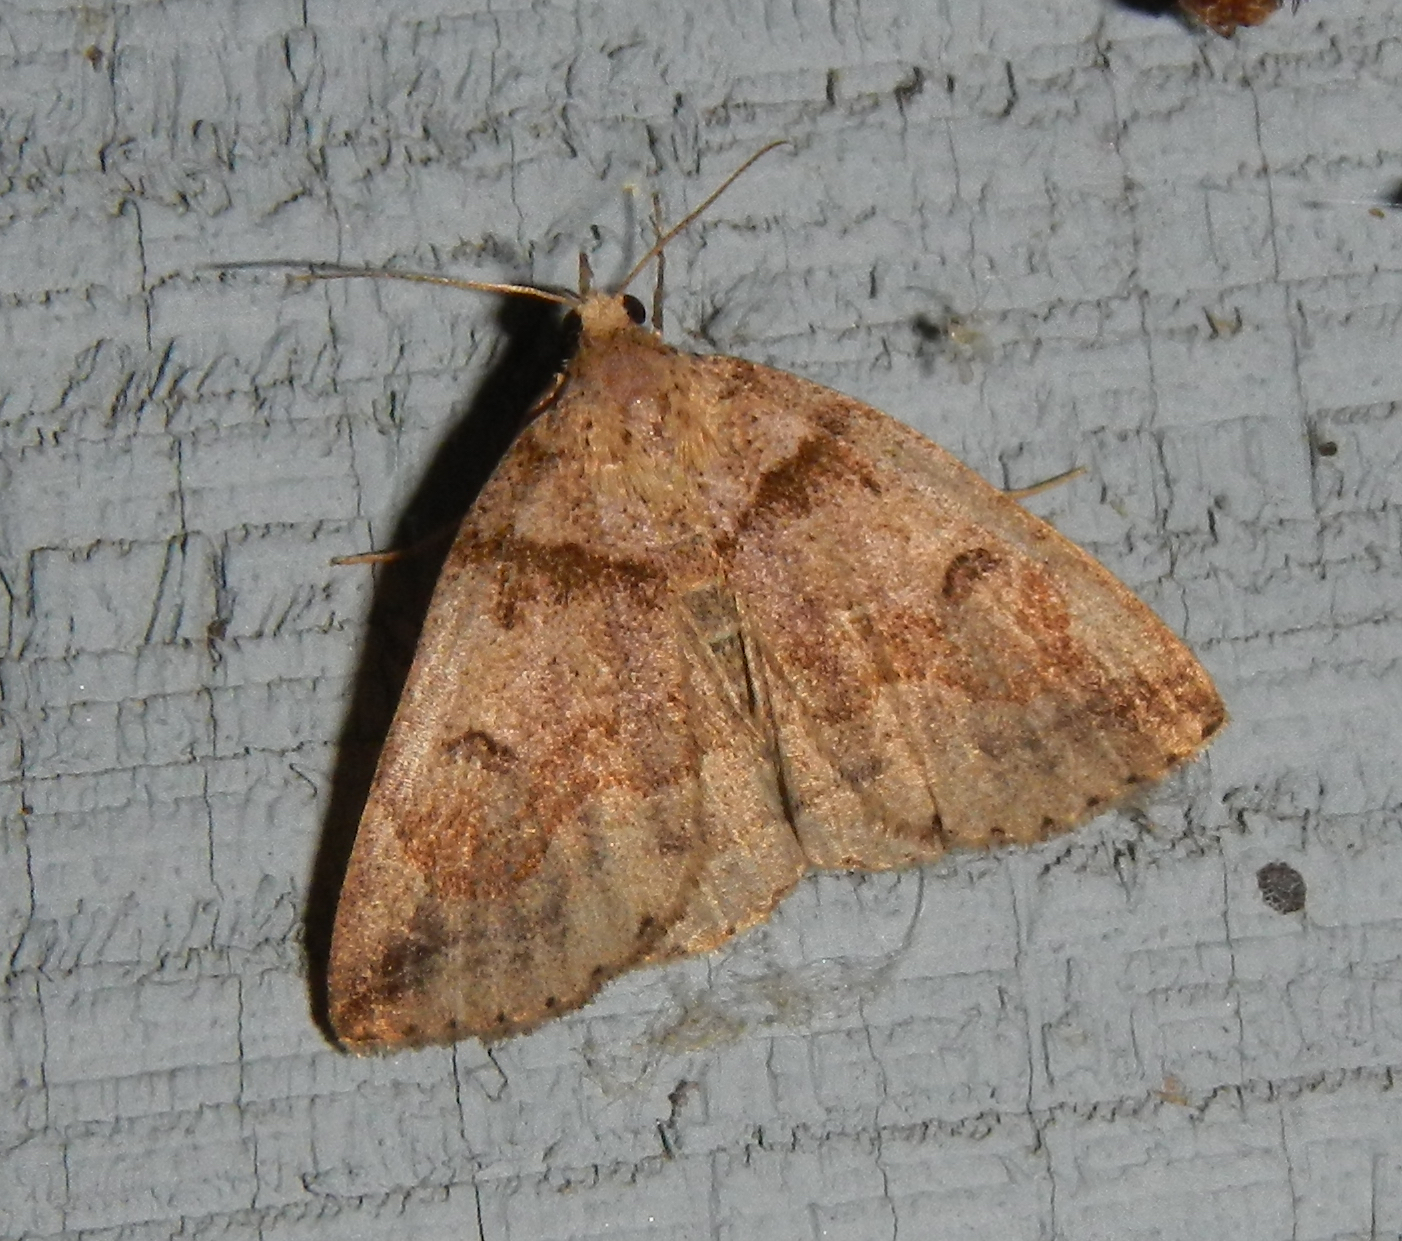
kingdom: Animalia
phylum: Arthropoda
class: Insecta
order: Lepidoptera
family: Erebidae
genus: Zanclognatha
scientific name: Zanclognatha laevigata
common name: Variable fan-foot
